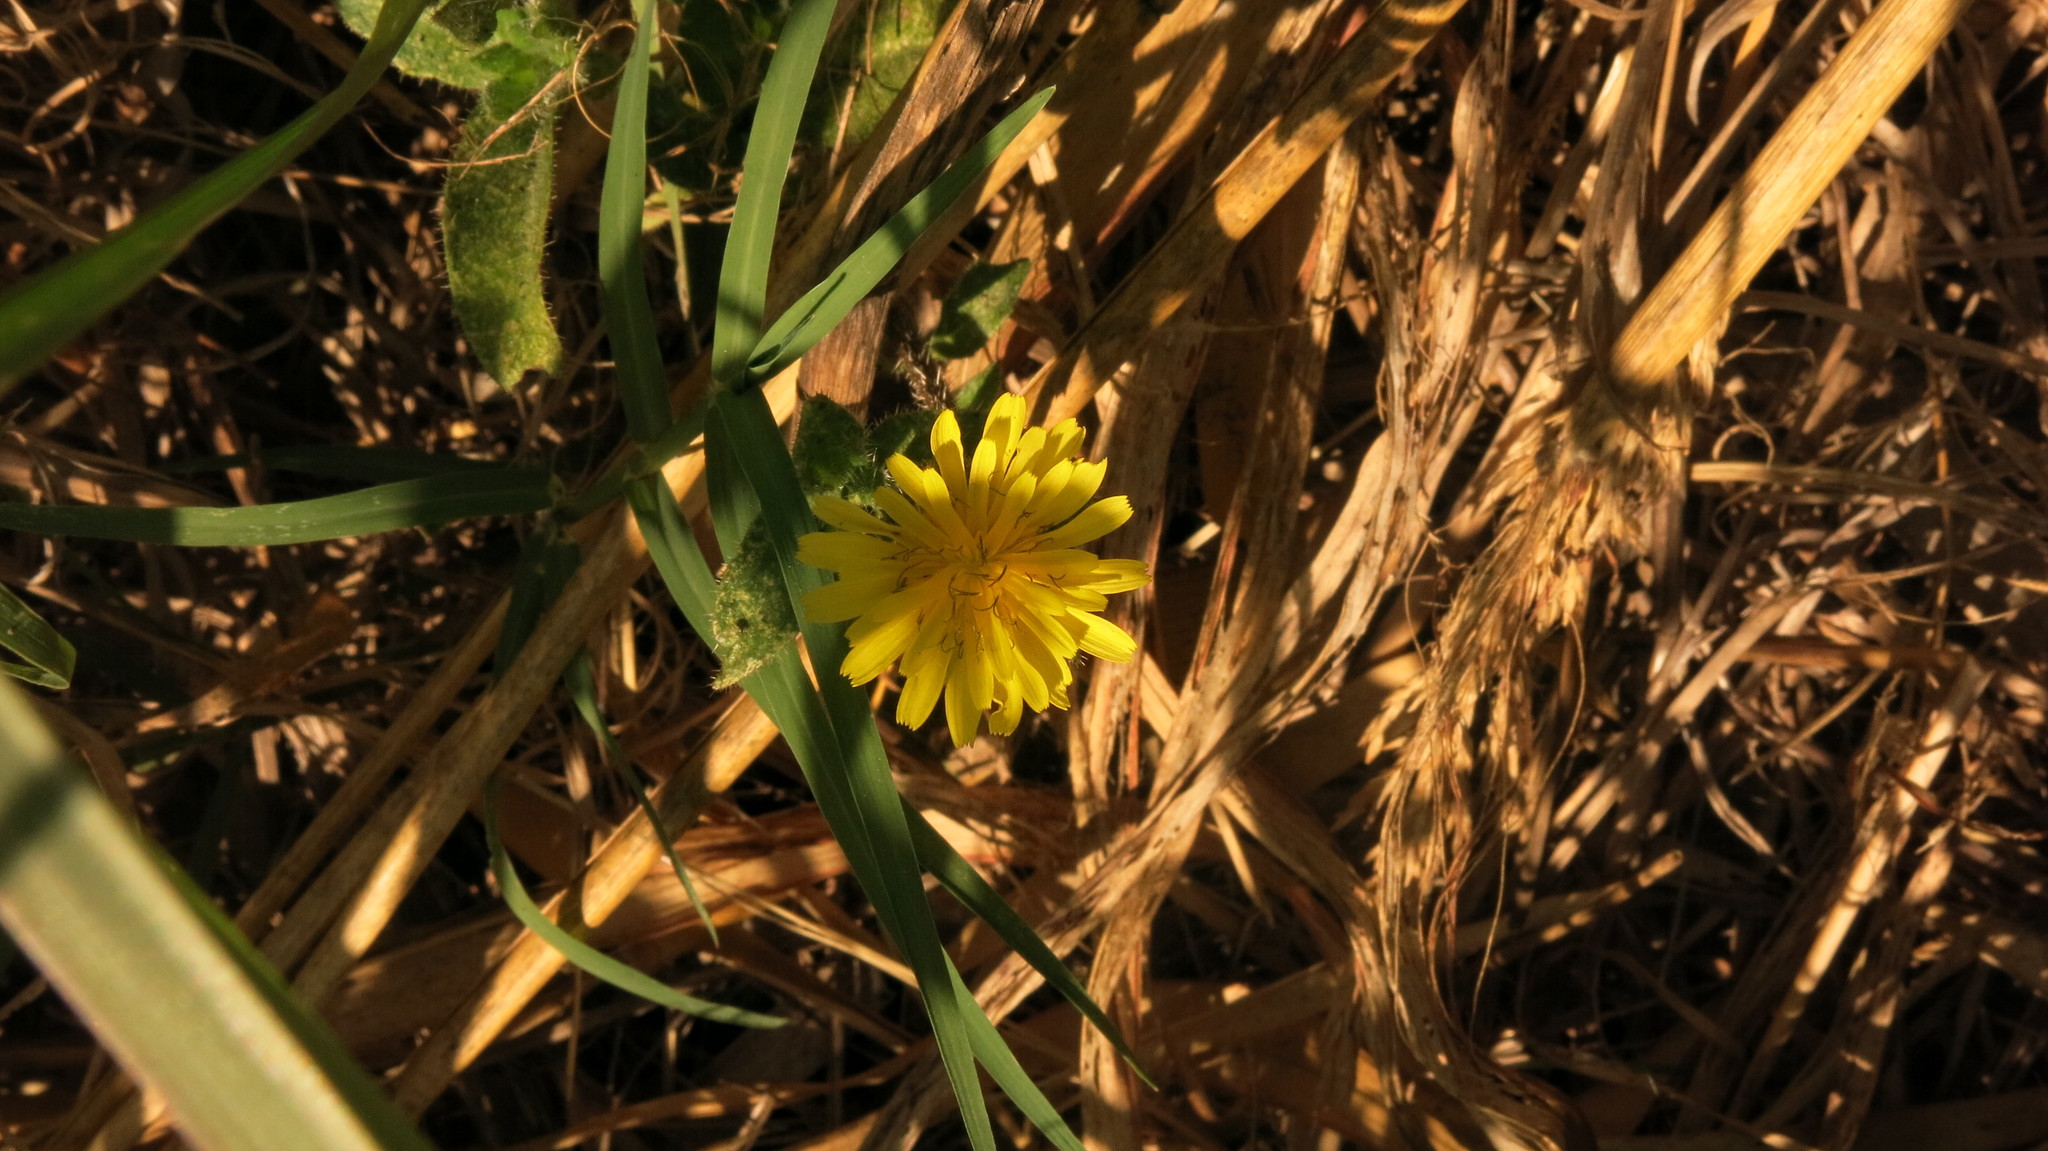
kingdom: Plantae
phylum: Tracheophyta
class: Magnoliopsida
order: Asterales
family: Asteraceae
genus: Helminthotheca
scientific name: Helminthotheca echioides
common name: Ox-tongue
